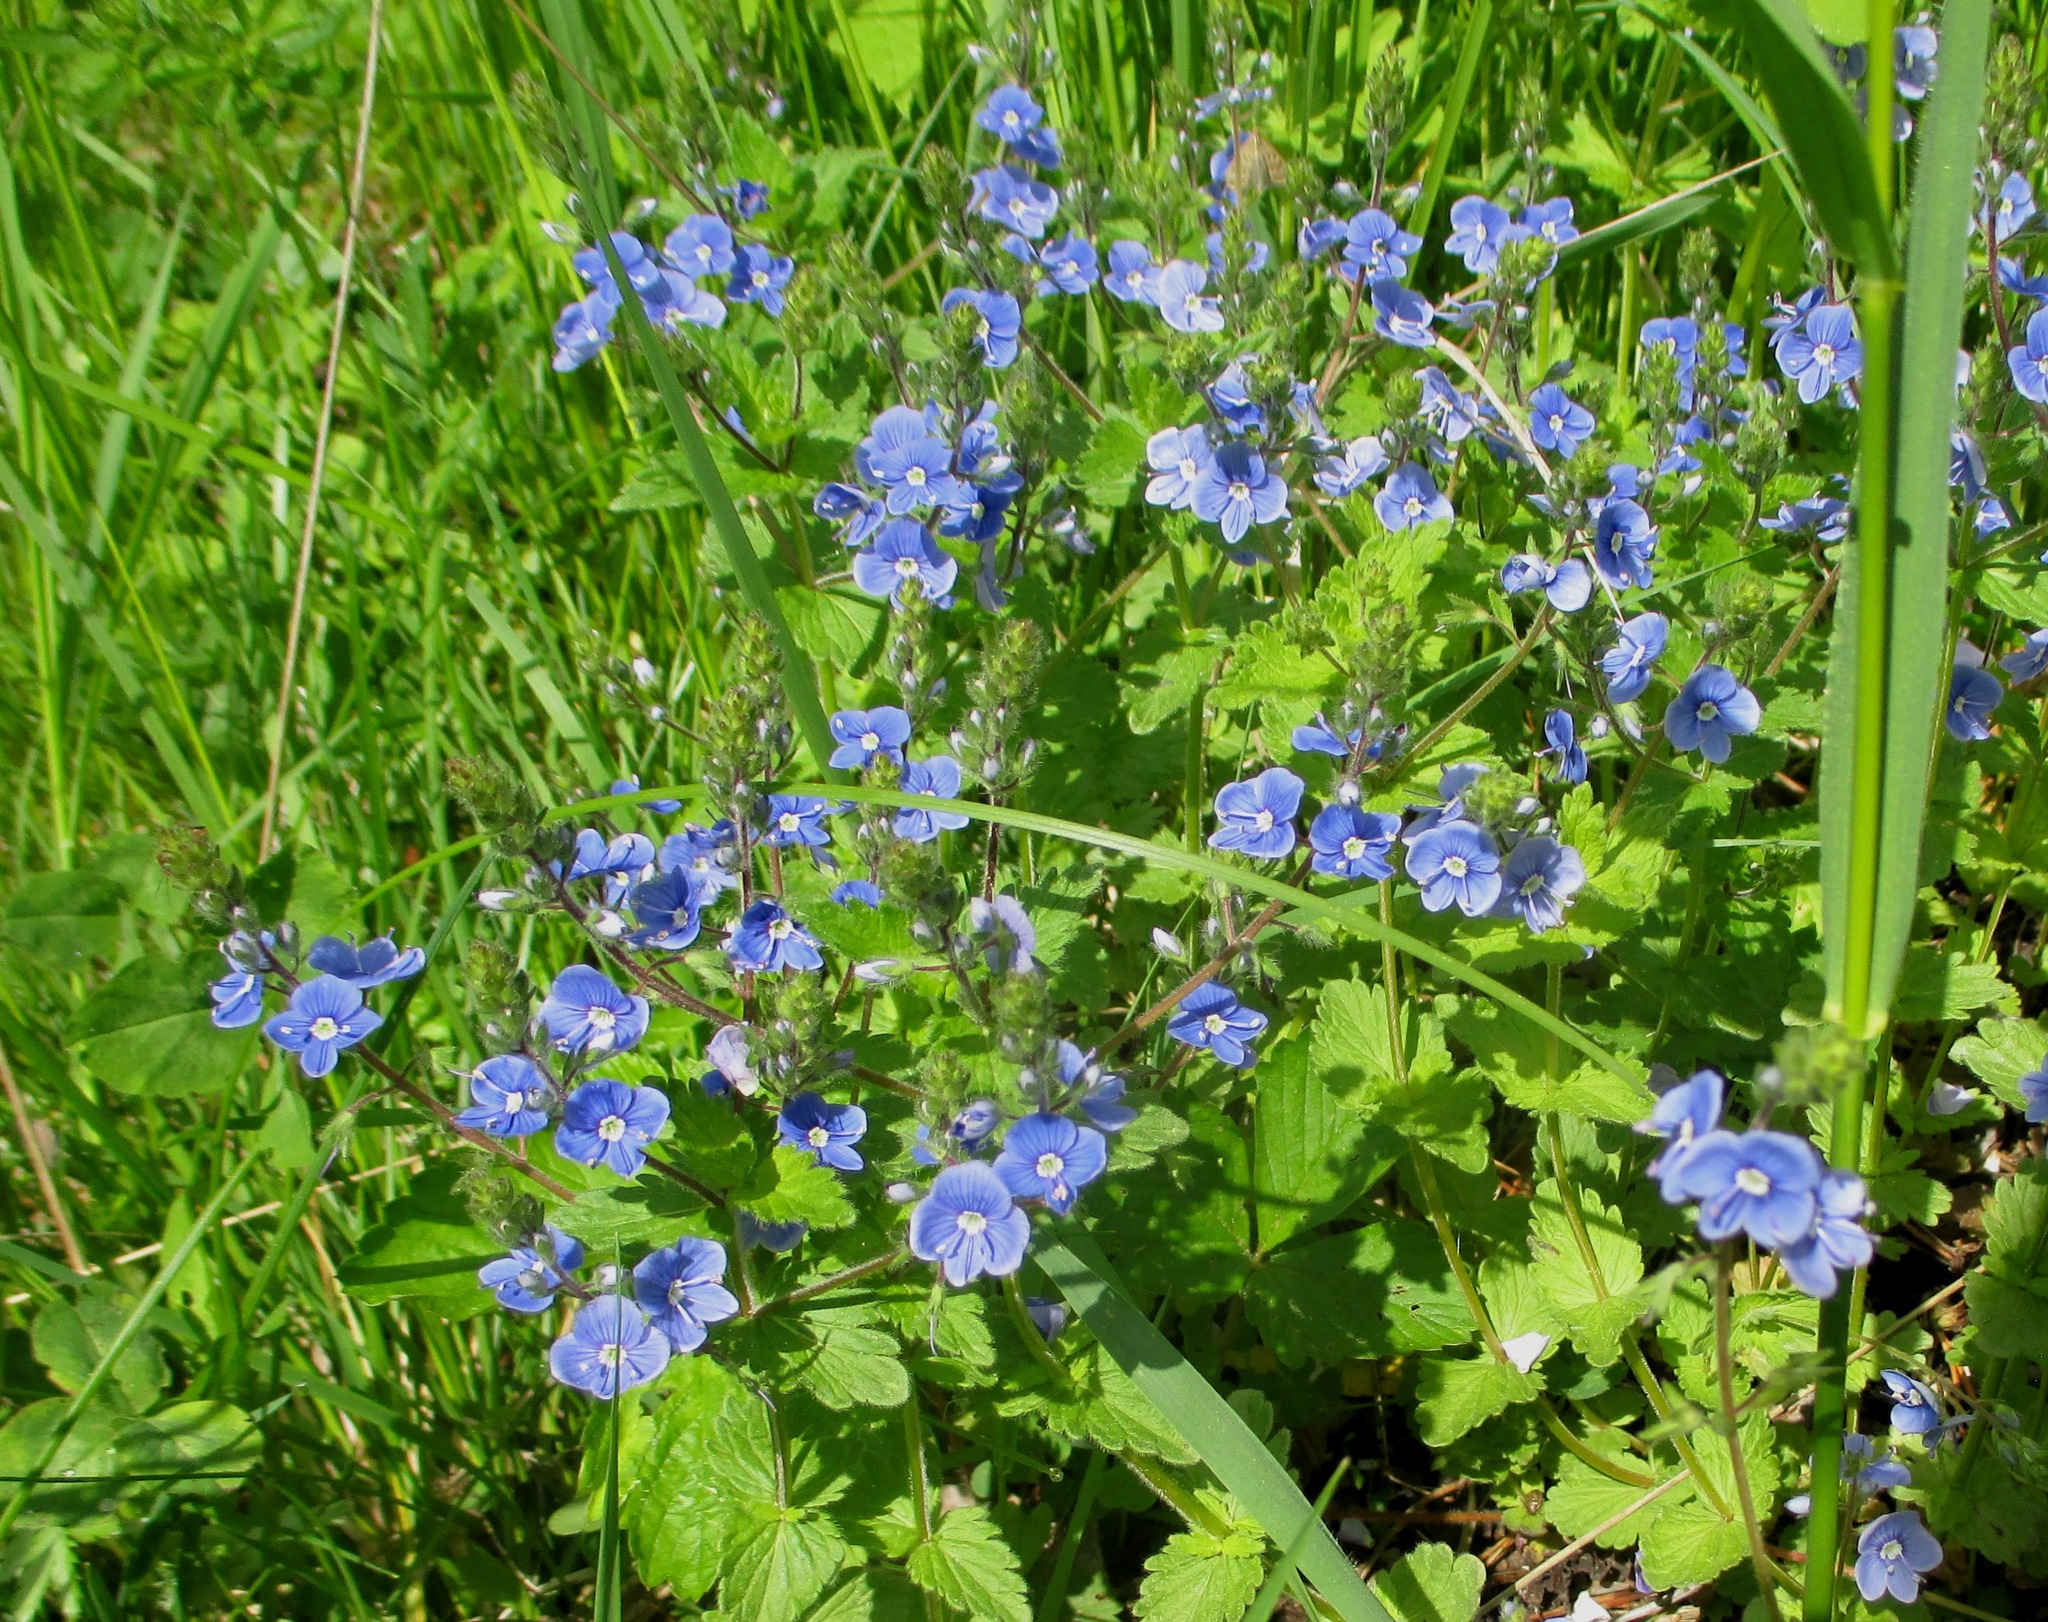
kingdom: Plantae
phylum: Tracheophyta
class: Magnoliopsida
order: Lamiales
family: Plantaginaceae
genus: Veronica
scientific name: Veronica chamaedrys
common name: Germander speedwell
